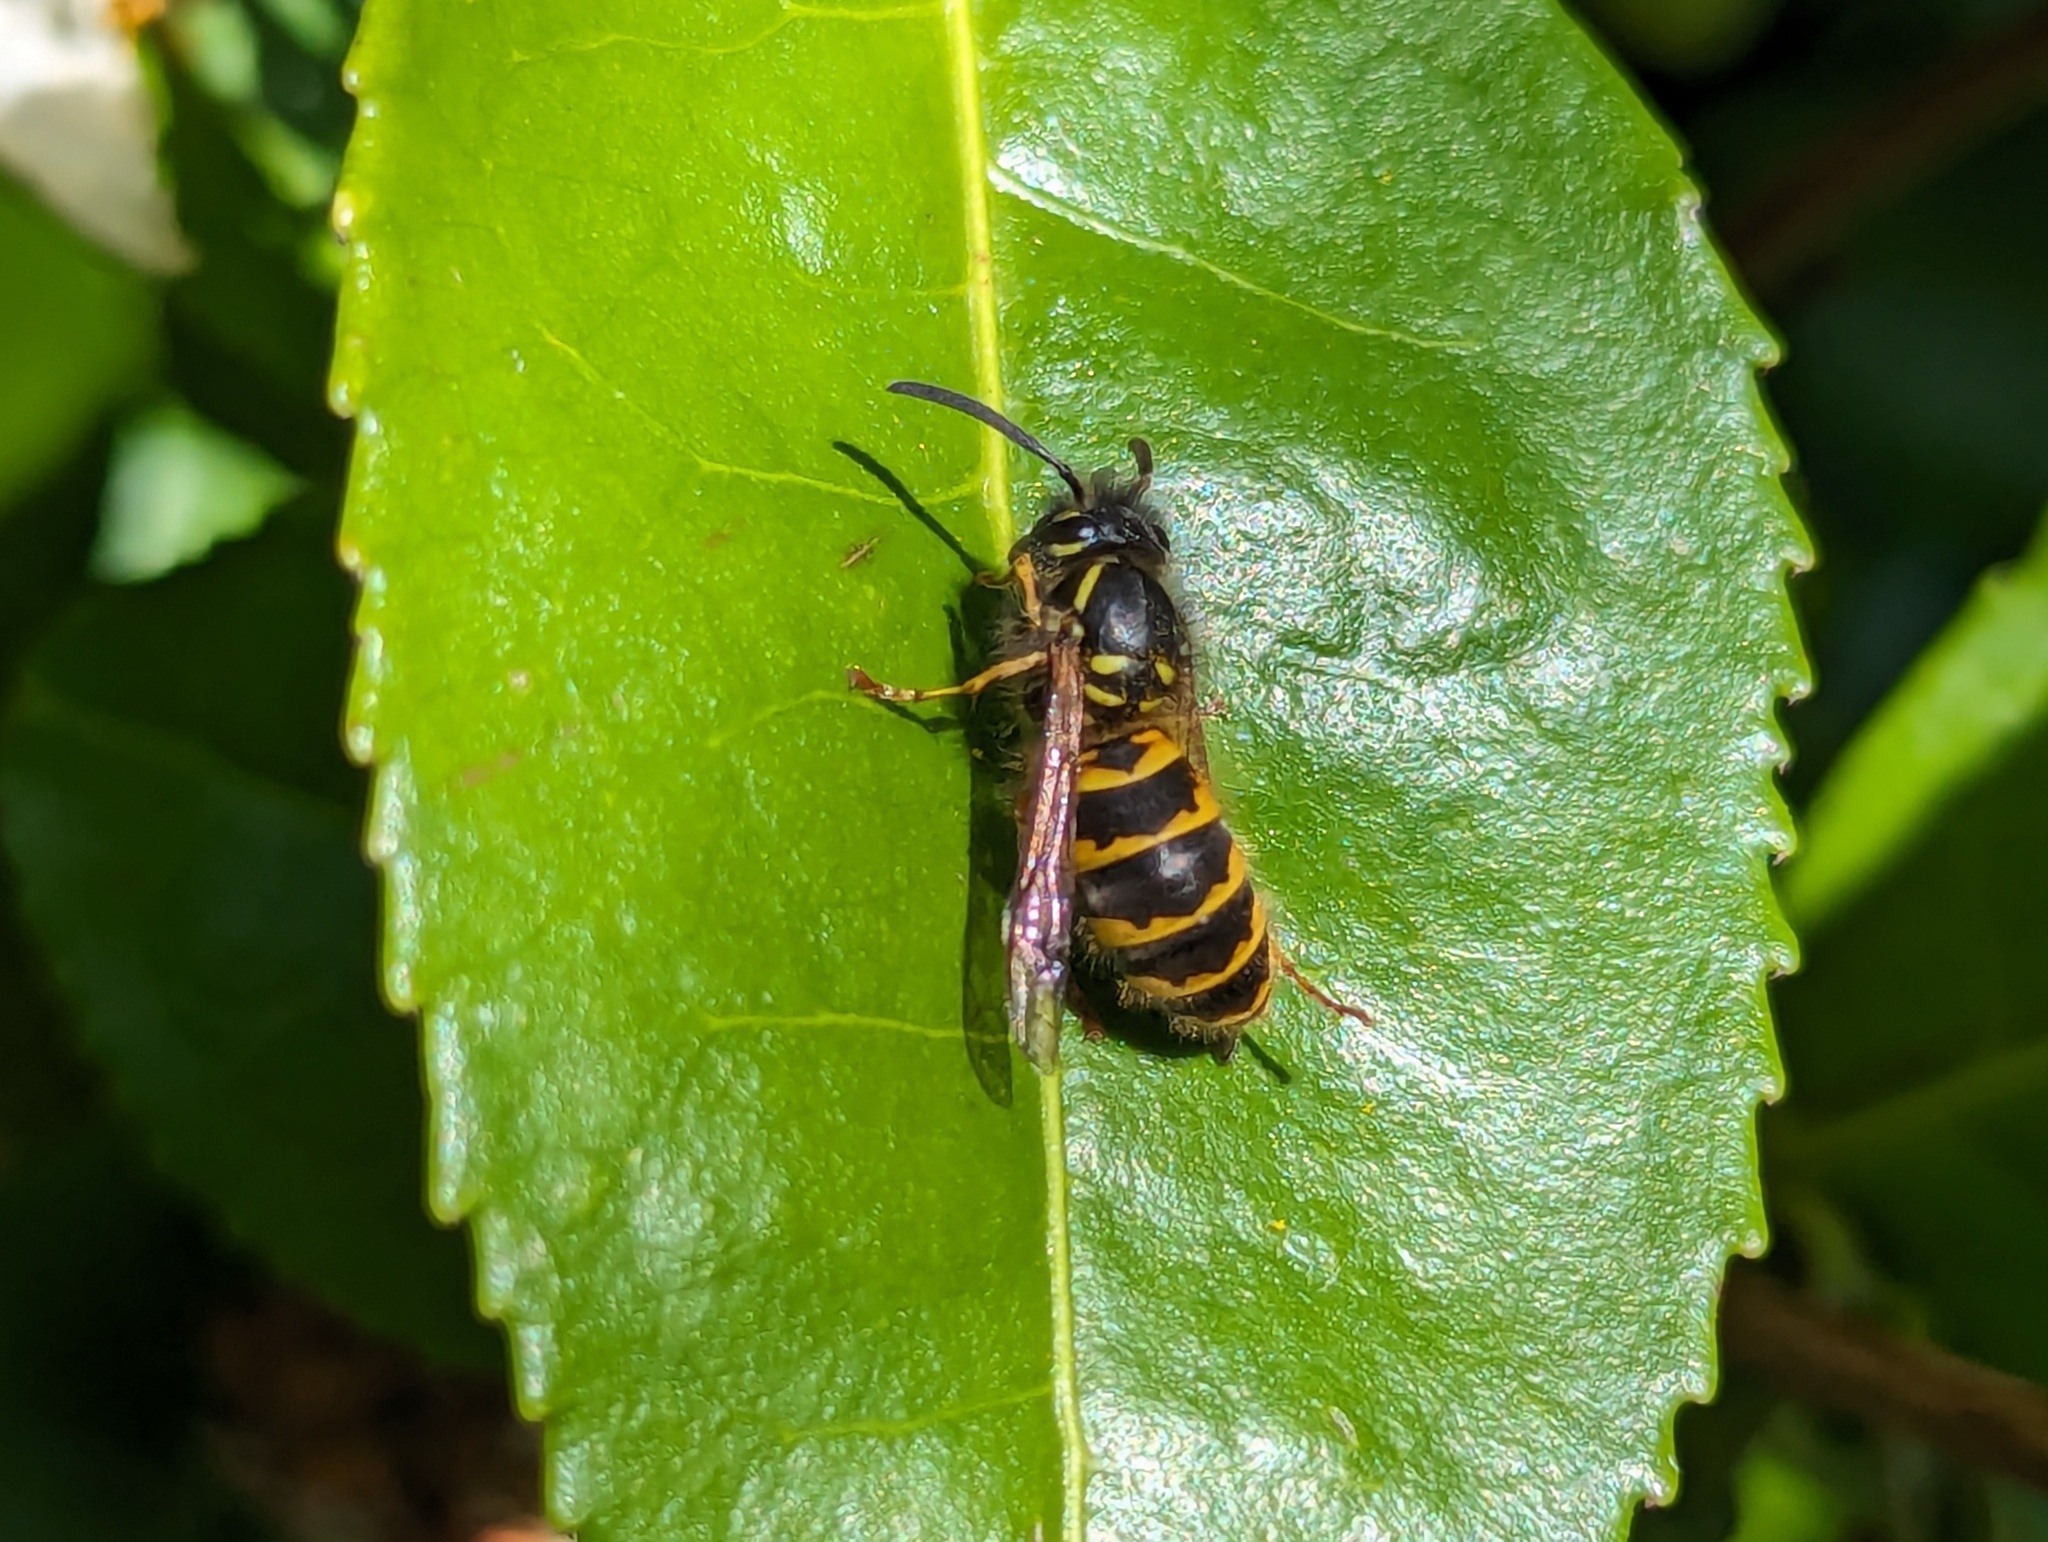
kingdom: Animalia
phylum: Arthropoda
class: Insecta
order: Hymenoptera
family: Vespidae
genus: Vespula
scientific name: Vespula vulgaris
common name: Common wasp
